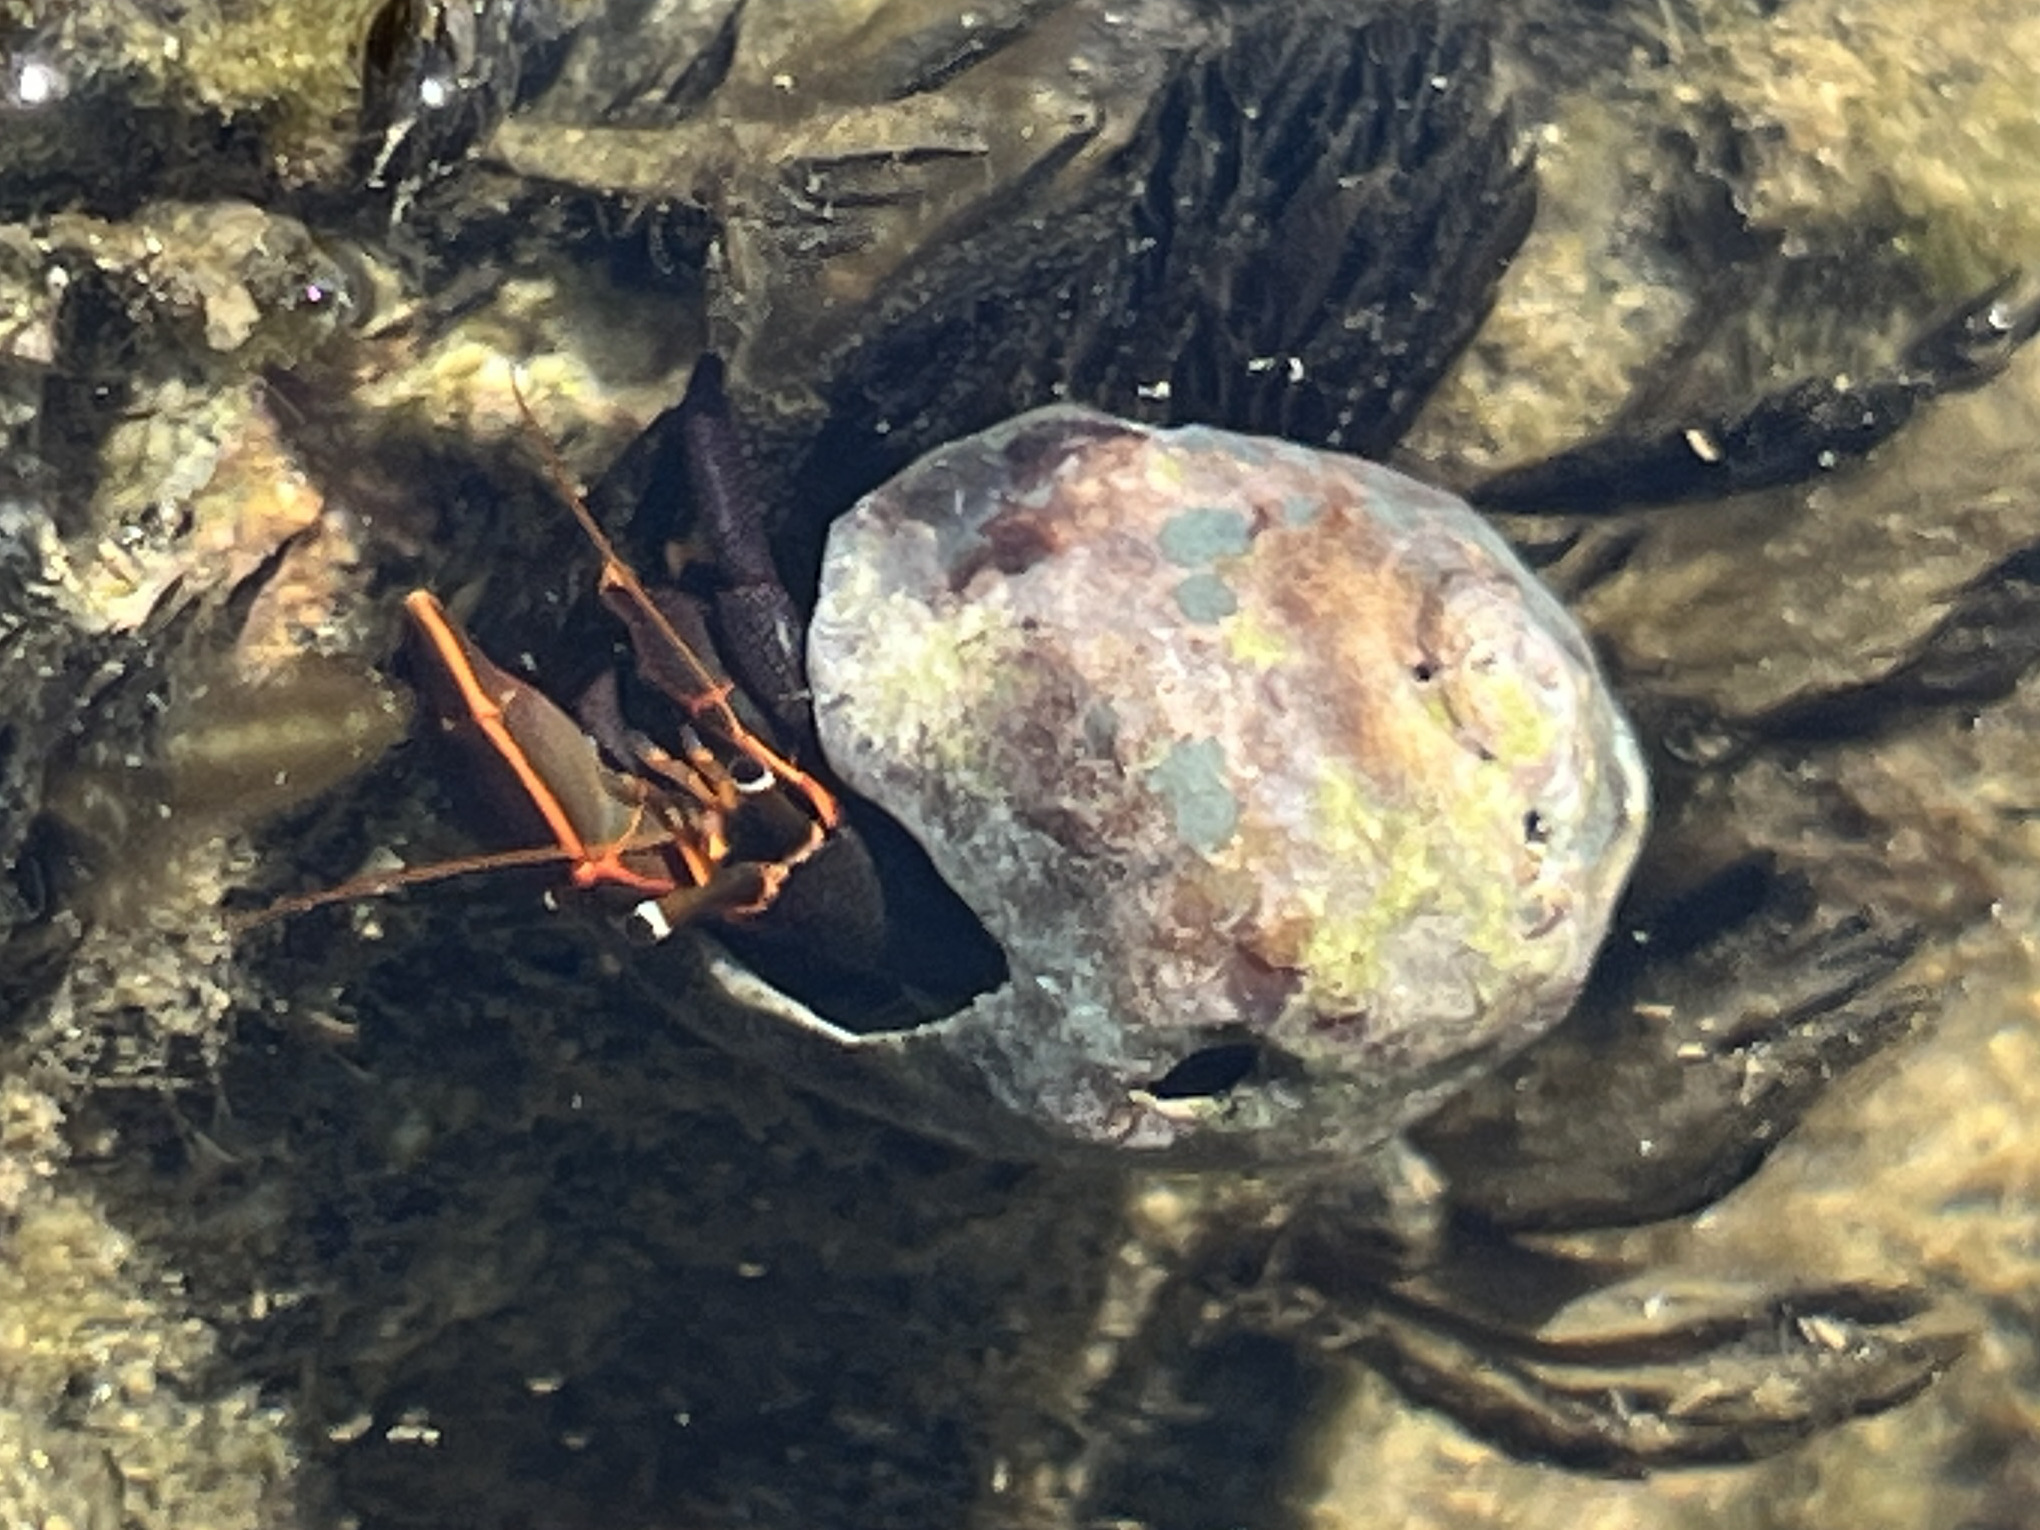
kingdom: Animalia
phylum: Arthropoda
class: Malacostraca
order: Decapoda
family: Diogenidae
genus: Calcinus
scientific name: Calcinus obscurus
